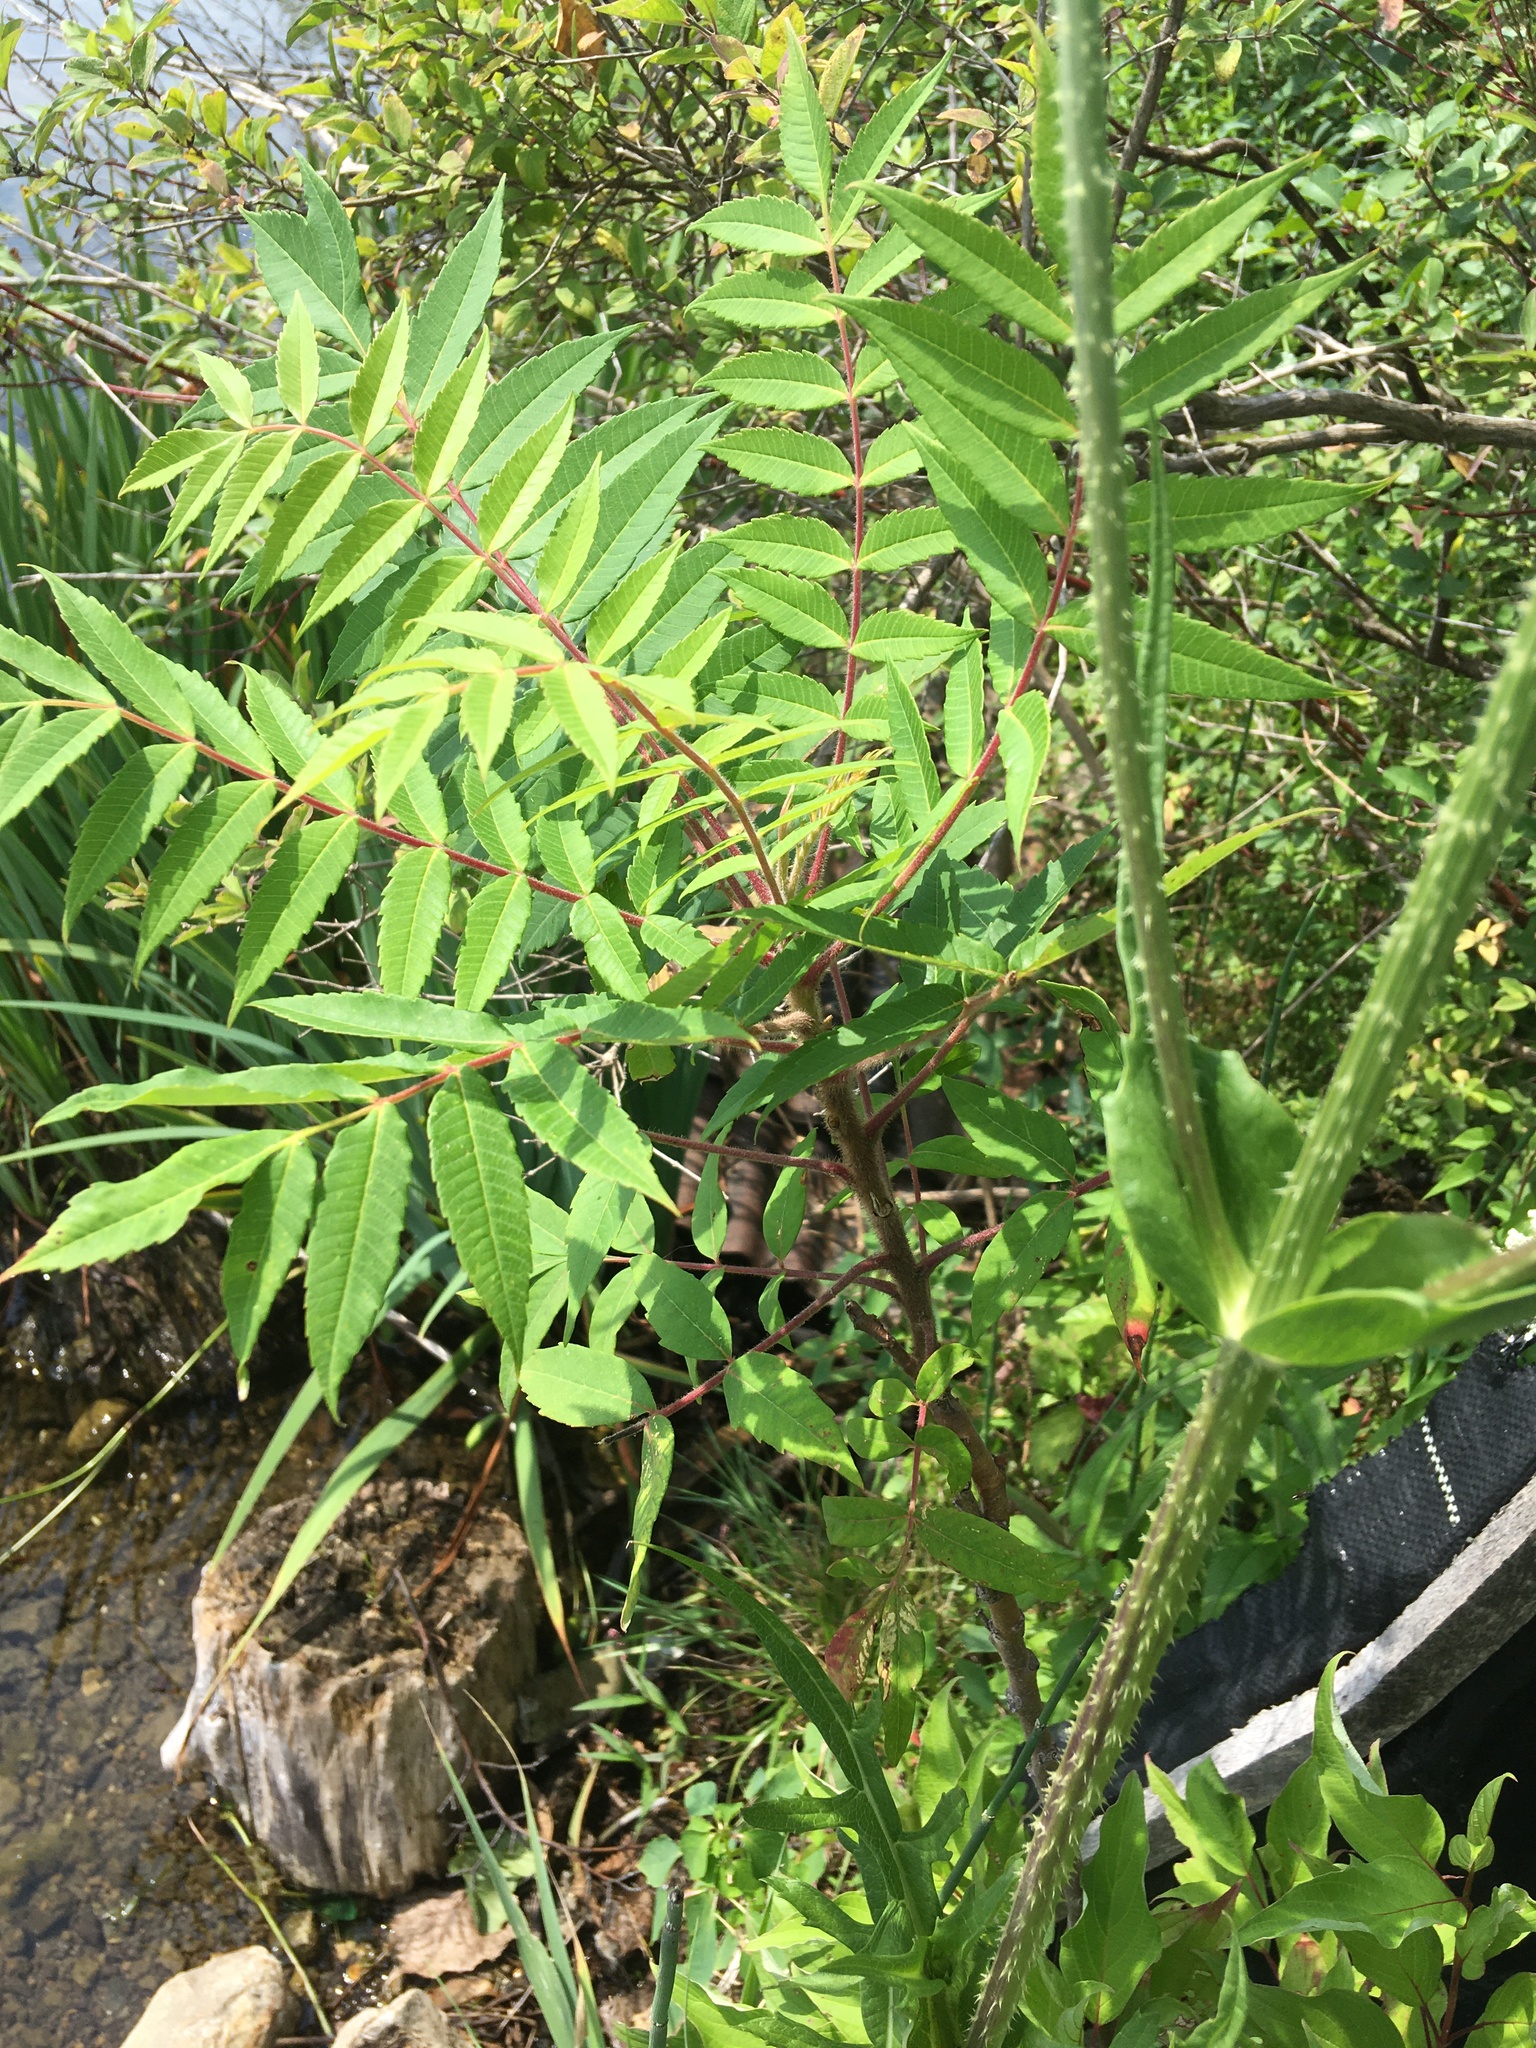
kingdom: Plantae
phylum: Tracheophyta
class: Magnoliopsida
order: Sapindales
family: Anacardiaceae
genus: Rhus
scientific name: Rhus typhina
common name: Staghorn sumac
